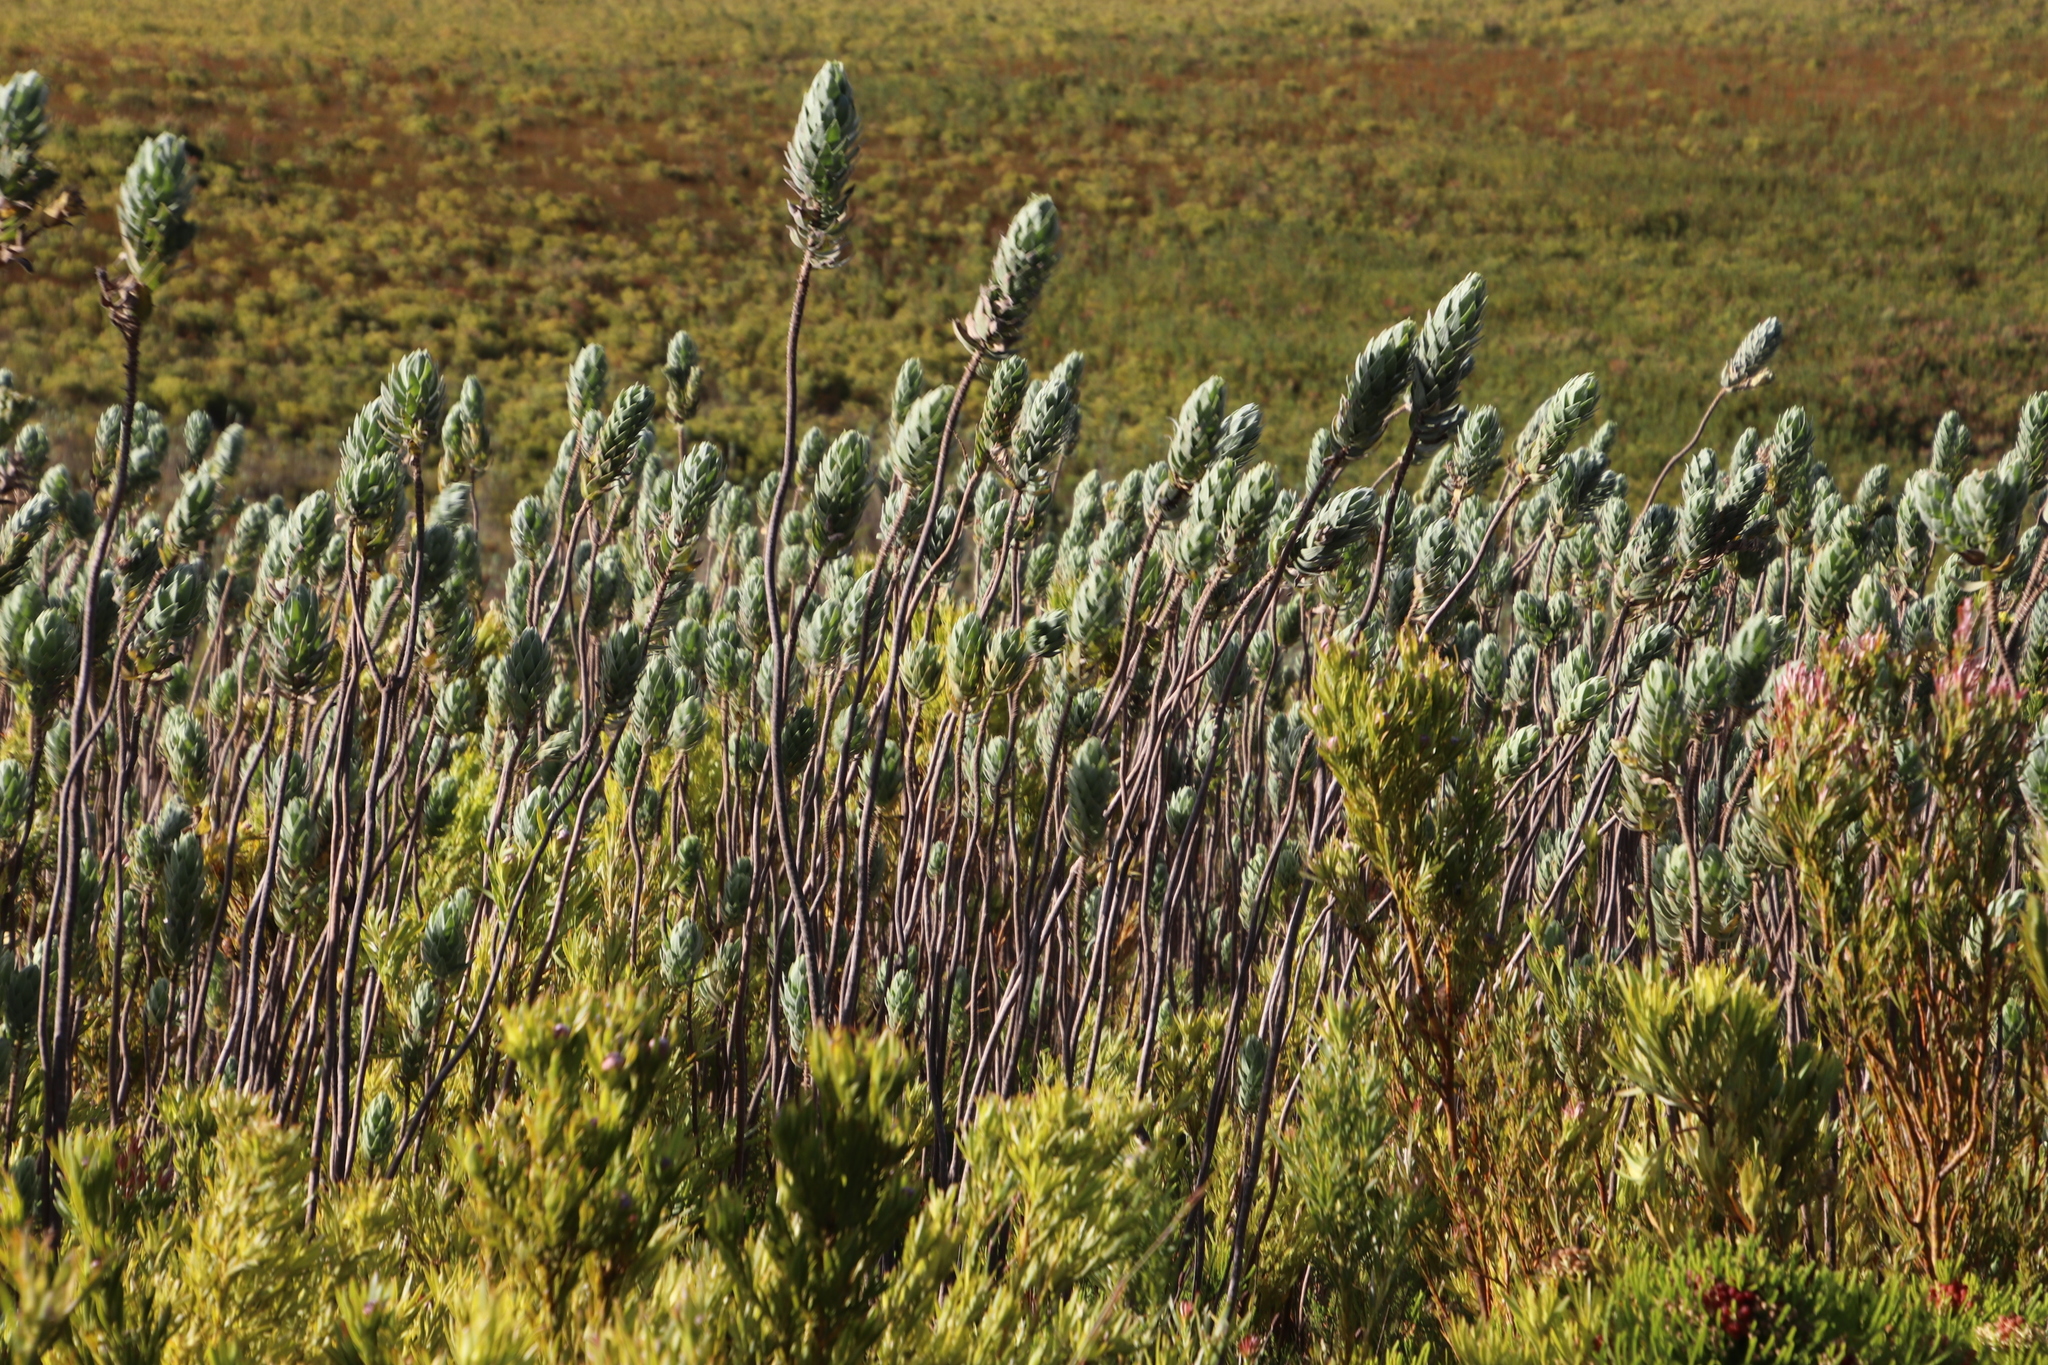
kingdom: Plantae
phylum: Tracheophyta
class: Magnoliopsida
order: Asterales
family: Asteraceae
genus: Osmitopsis
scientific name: Osmitopsis asteriscoides
